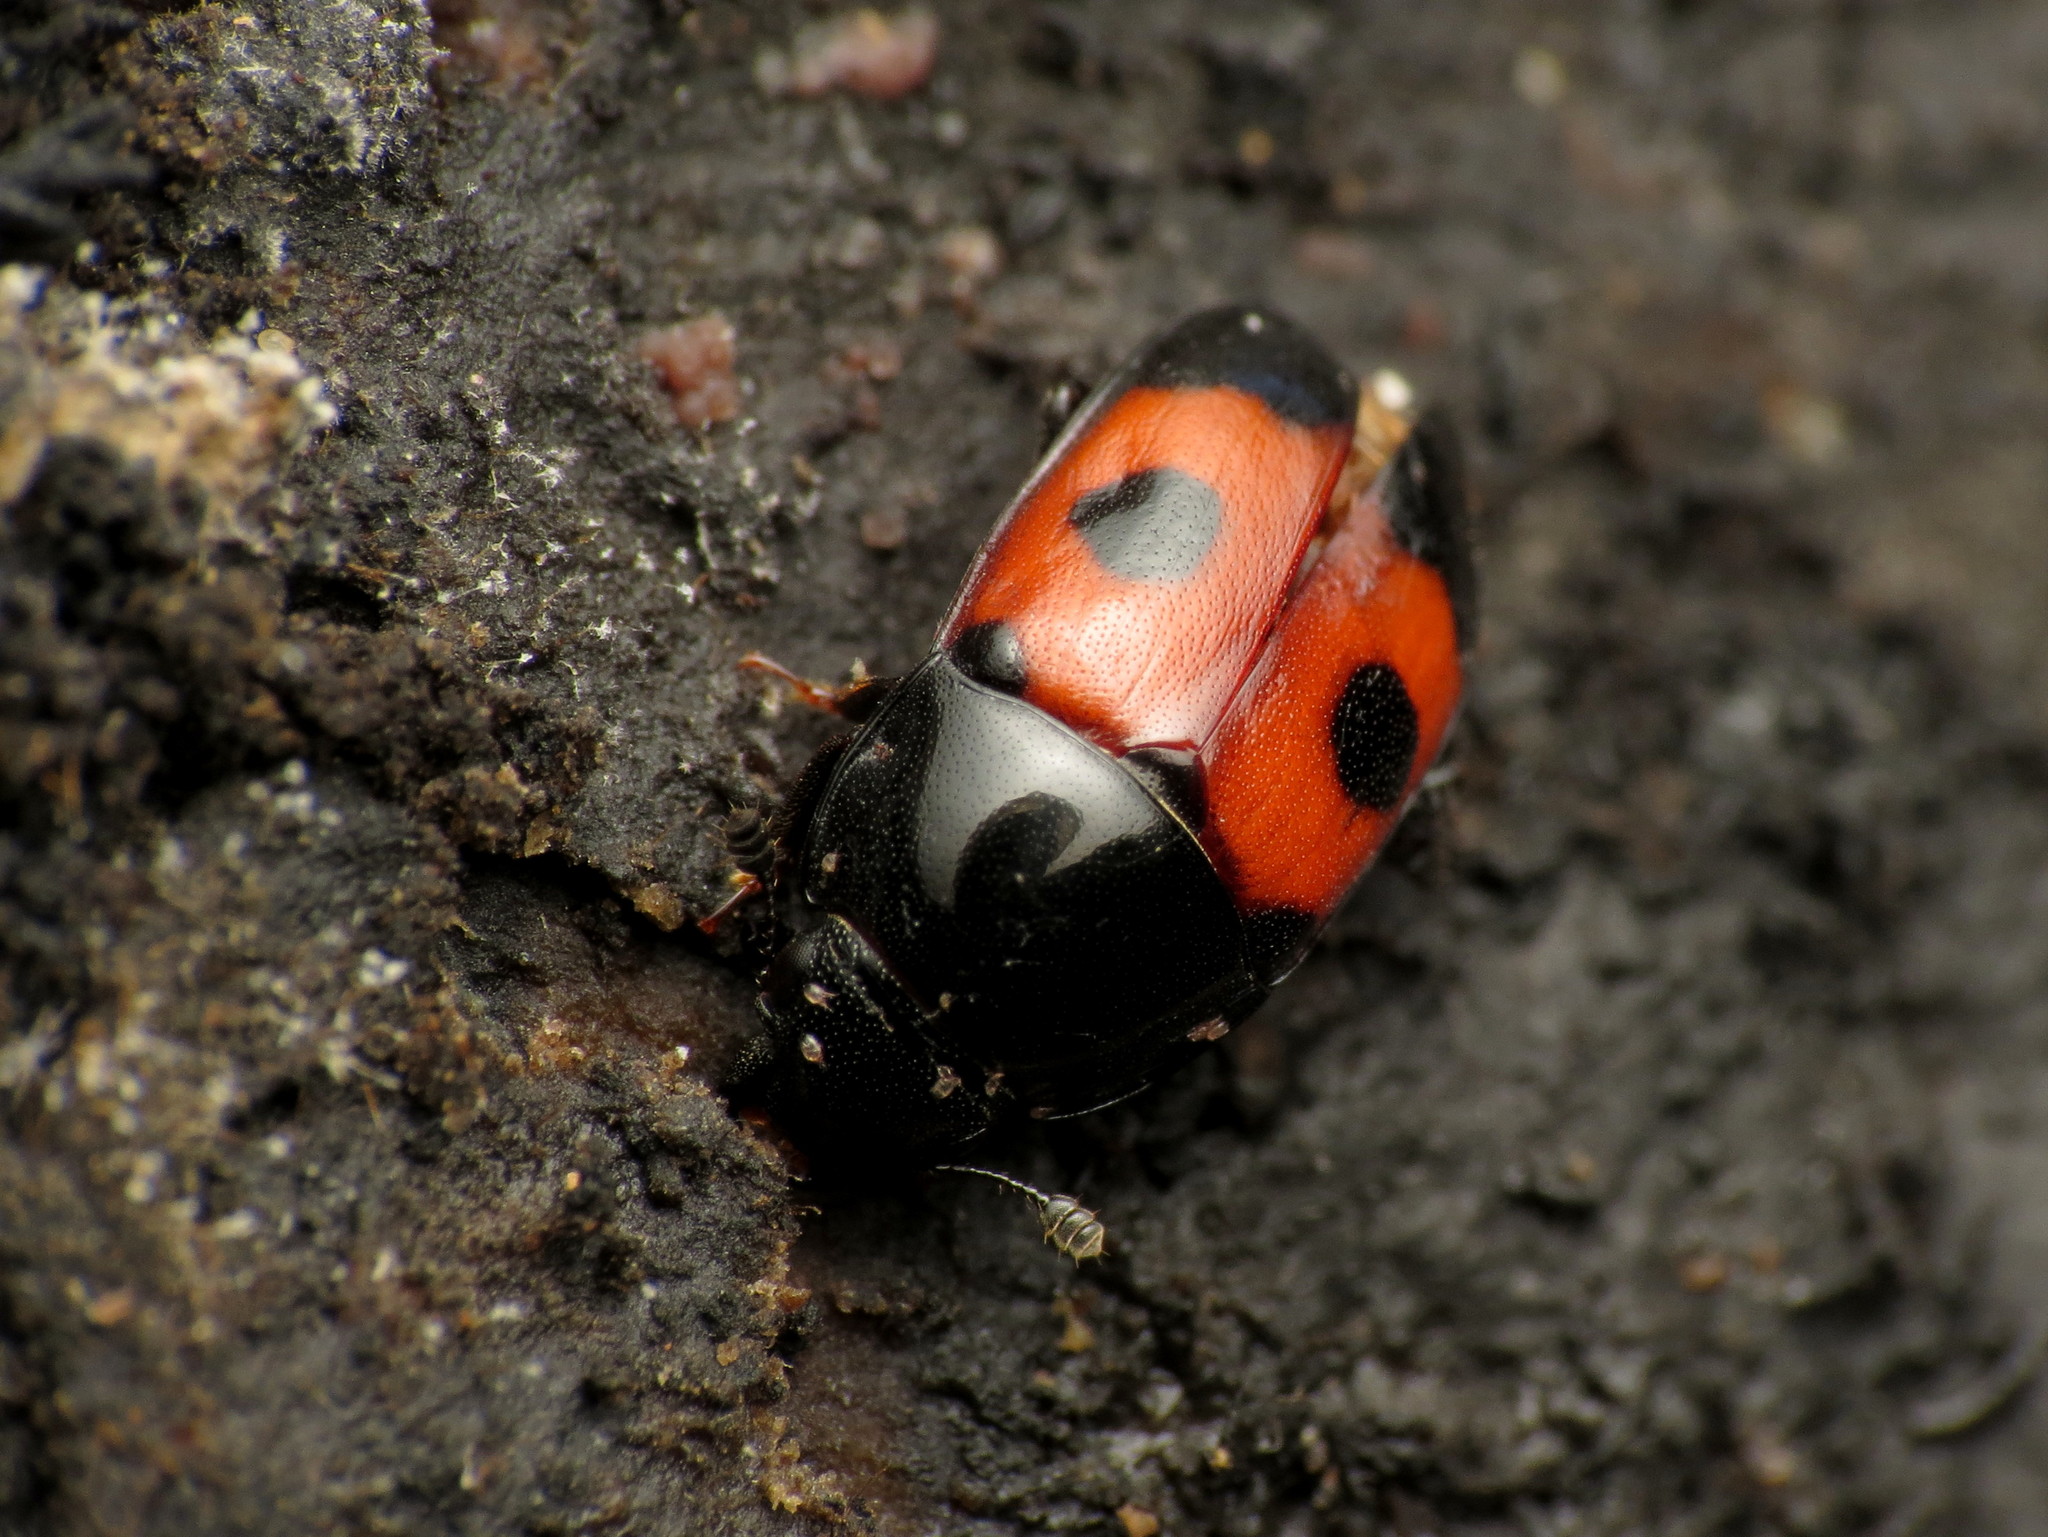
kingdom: Animalia
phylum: Arthropoda
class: Insecta
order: Coleoptera
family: Nitidulidae
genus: Glischrochilus
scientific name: Glischrochilus sanguinolentus
